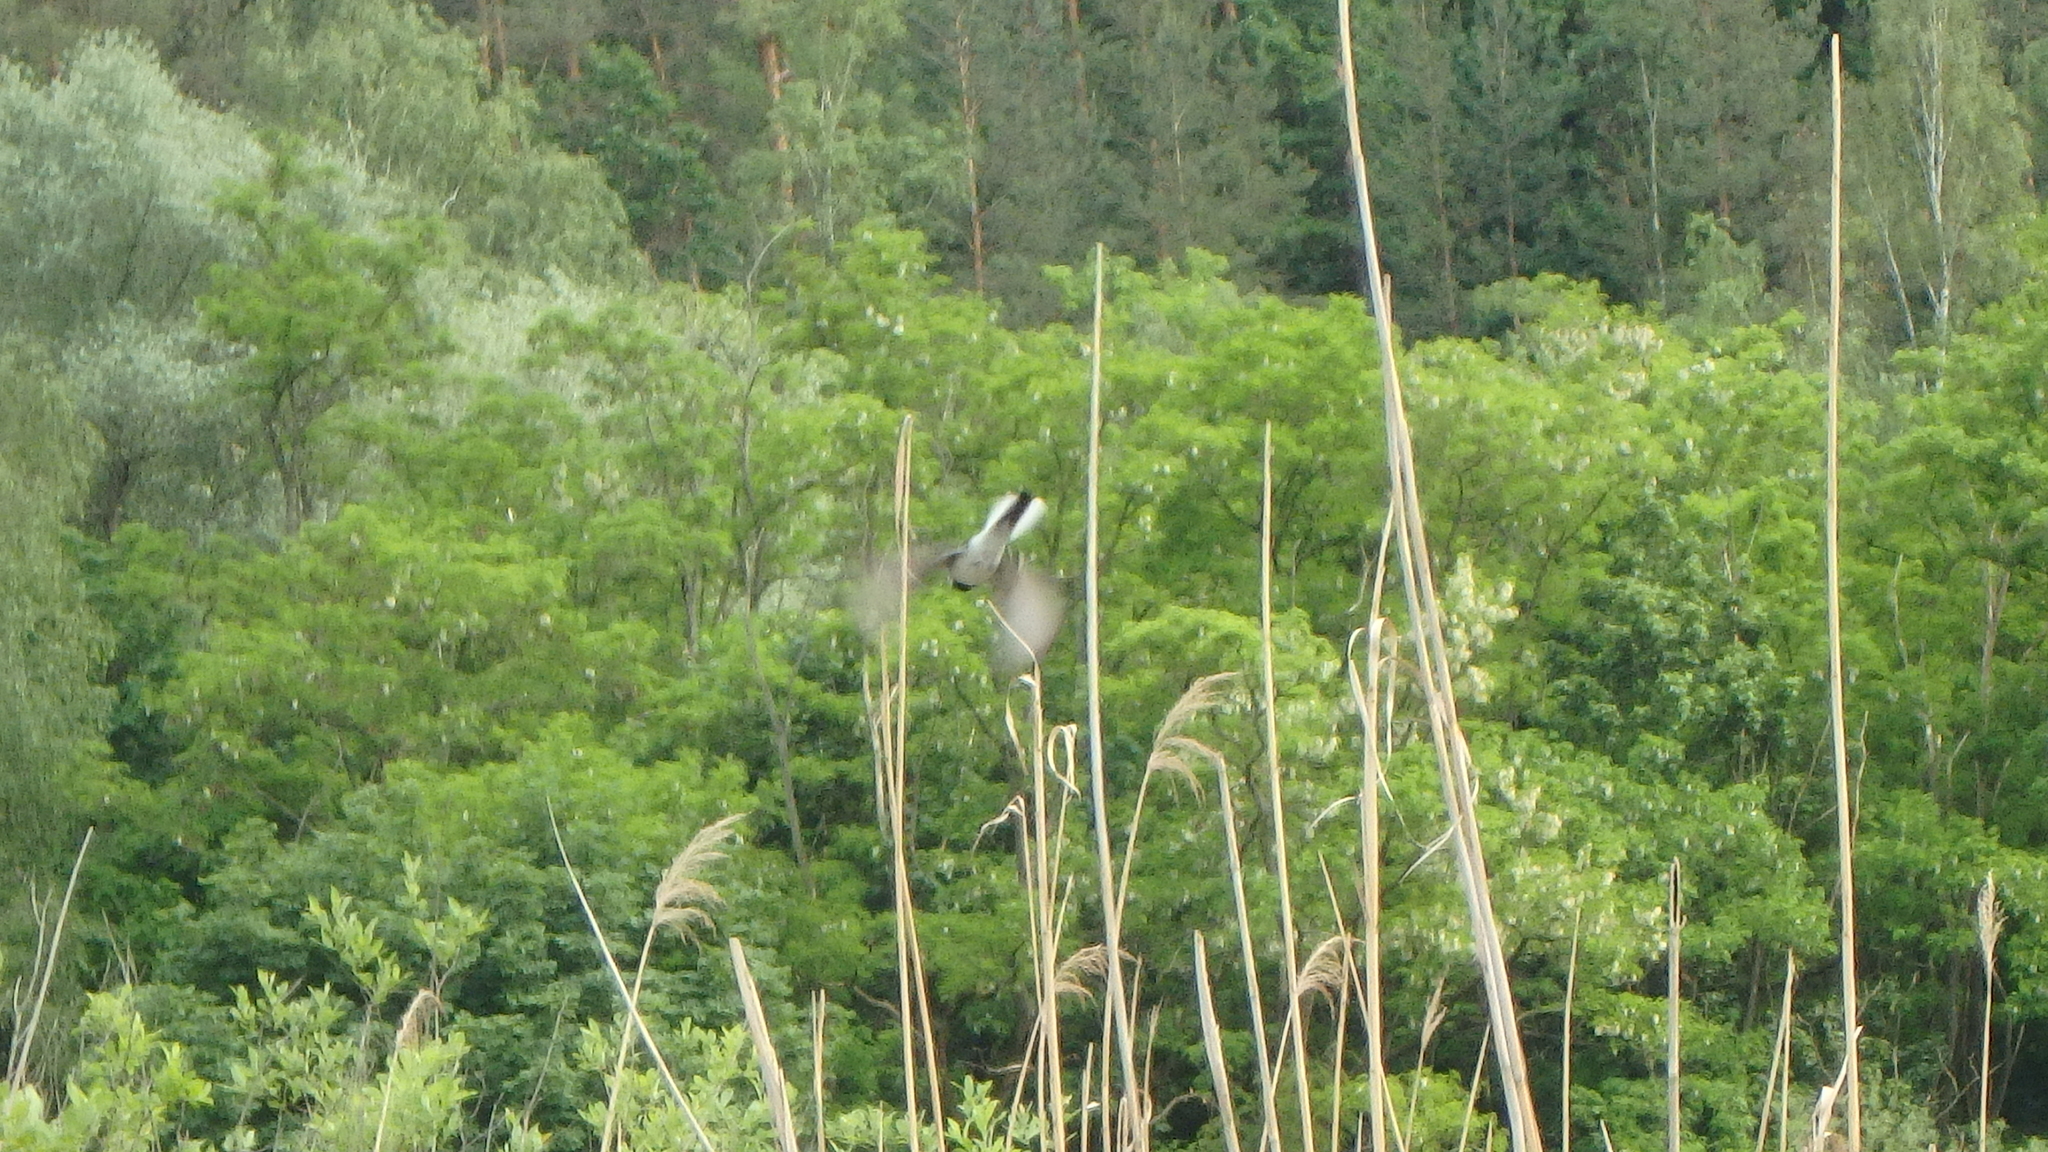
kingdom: Animalia
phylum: Chordata
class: Aves
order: Passeriformes
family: Motacillidae
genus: Motacilla
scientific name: Motacilla alba
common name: White wagtail
